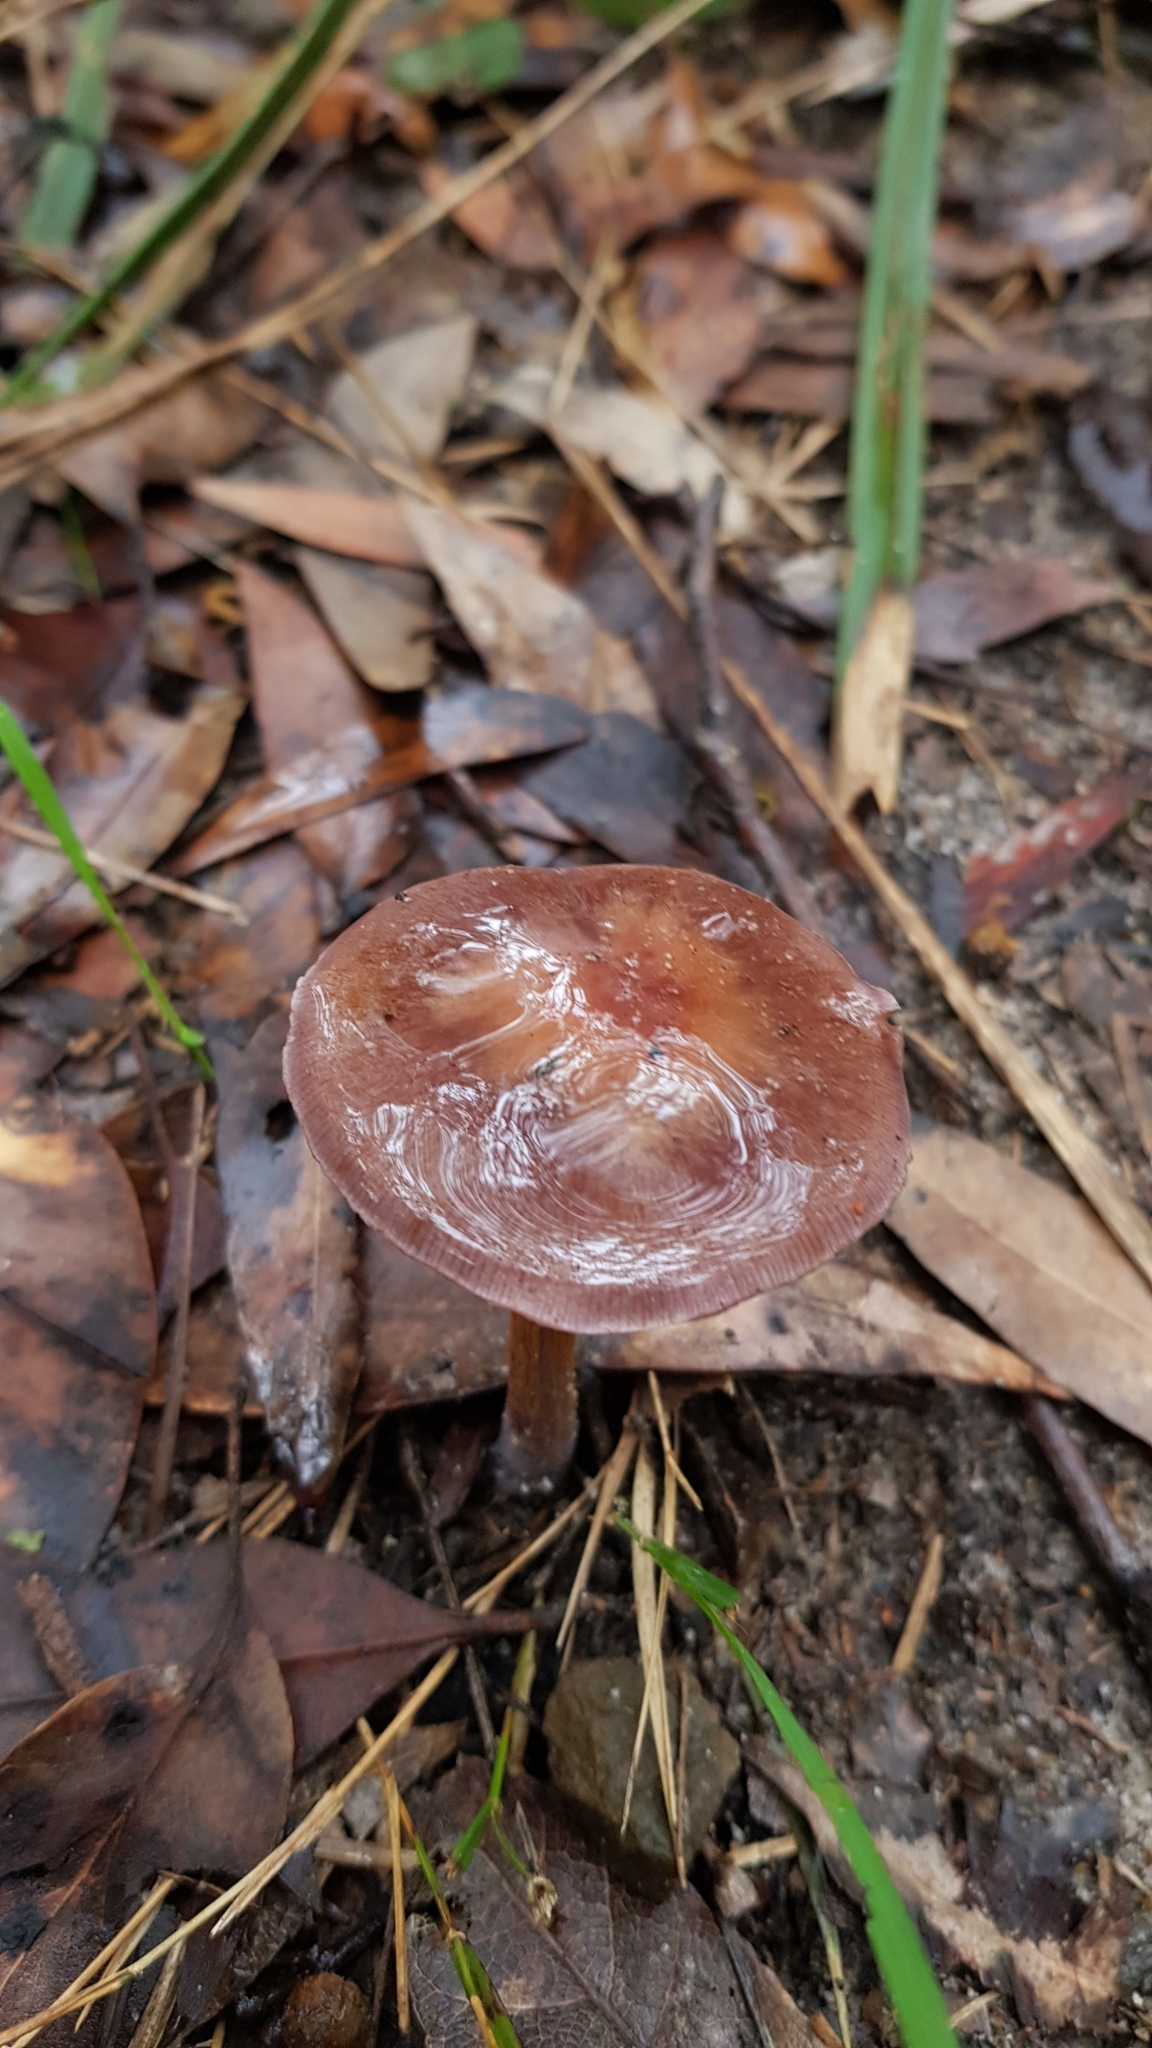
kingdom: Fungi
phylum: Basidiomycota
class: Agaricomycetes
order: Agaricales
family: Cortinariaceae
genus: Thaxterogaster
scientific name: Thaxterogaster submagellanicus
